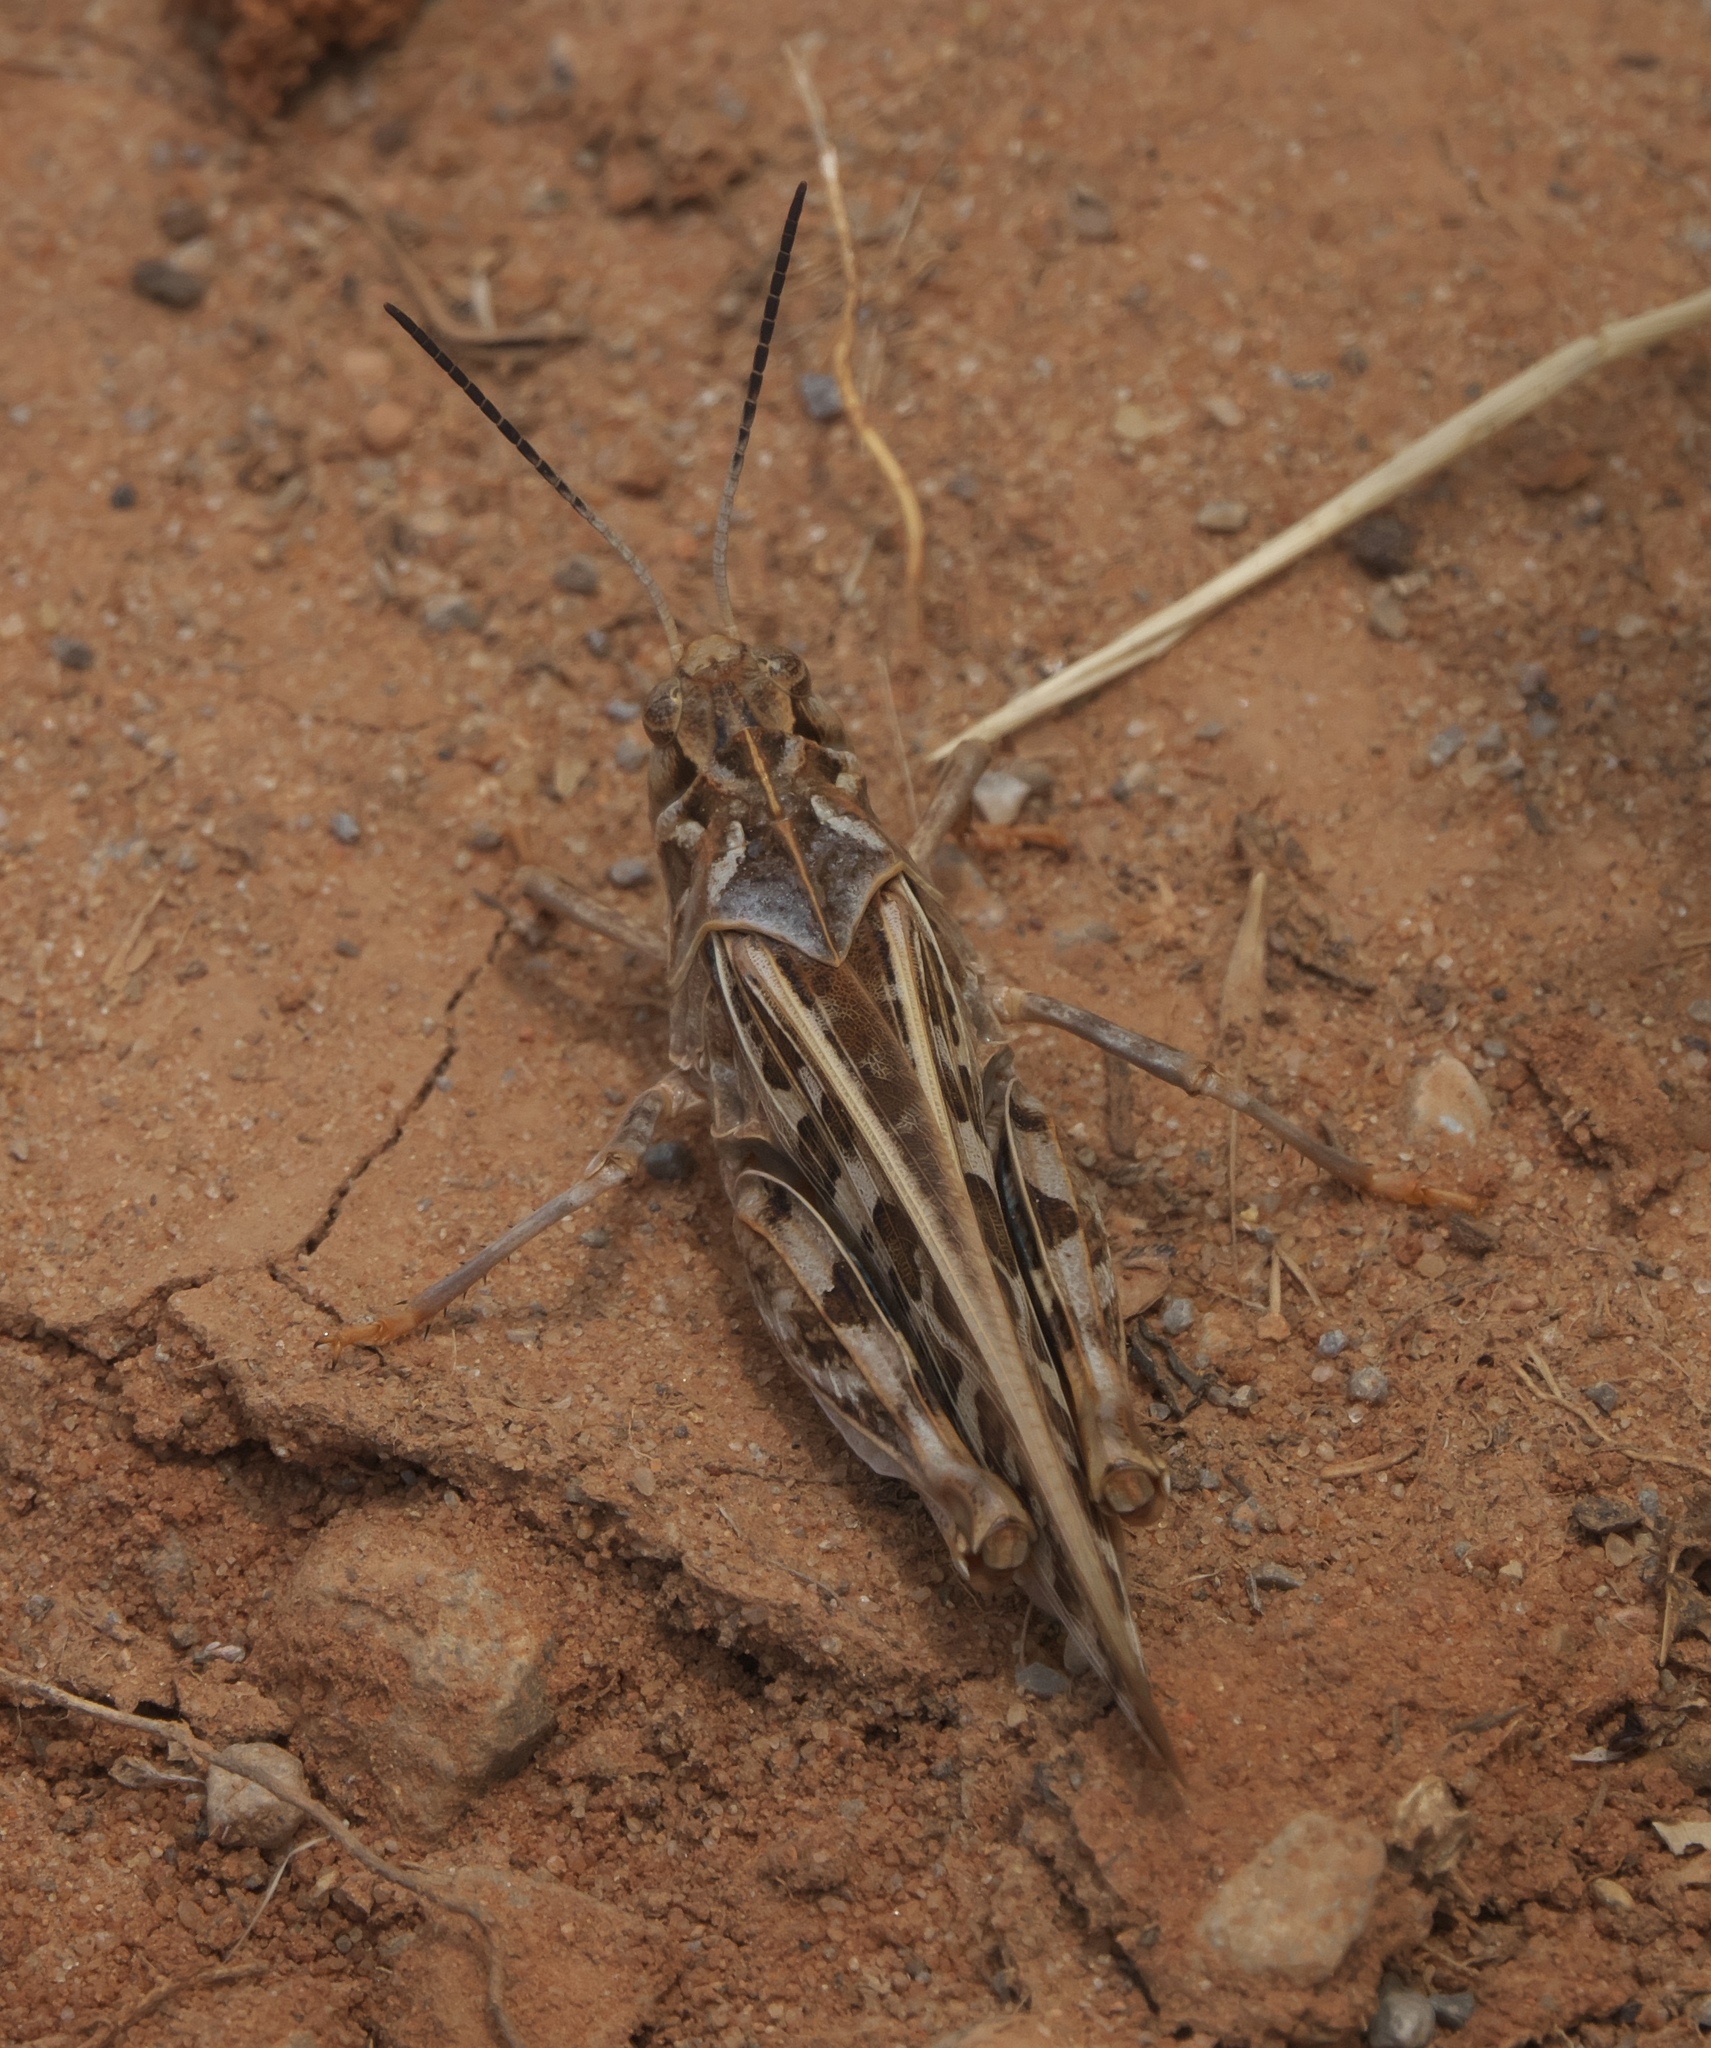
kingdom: Animalia
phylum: Arthropoda
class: Insecta
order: Orthoptera
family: Acrididae
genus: Pardalophora
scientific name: Pardalophora saussurei
